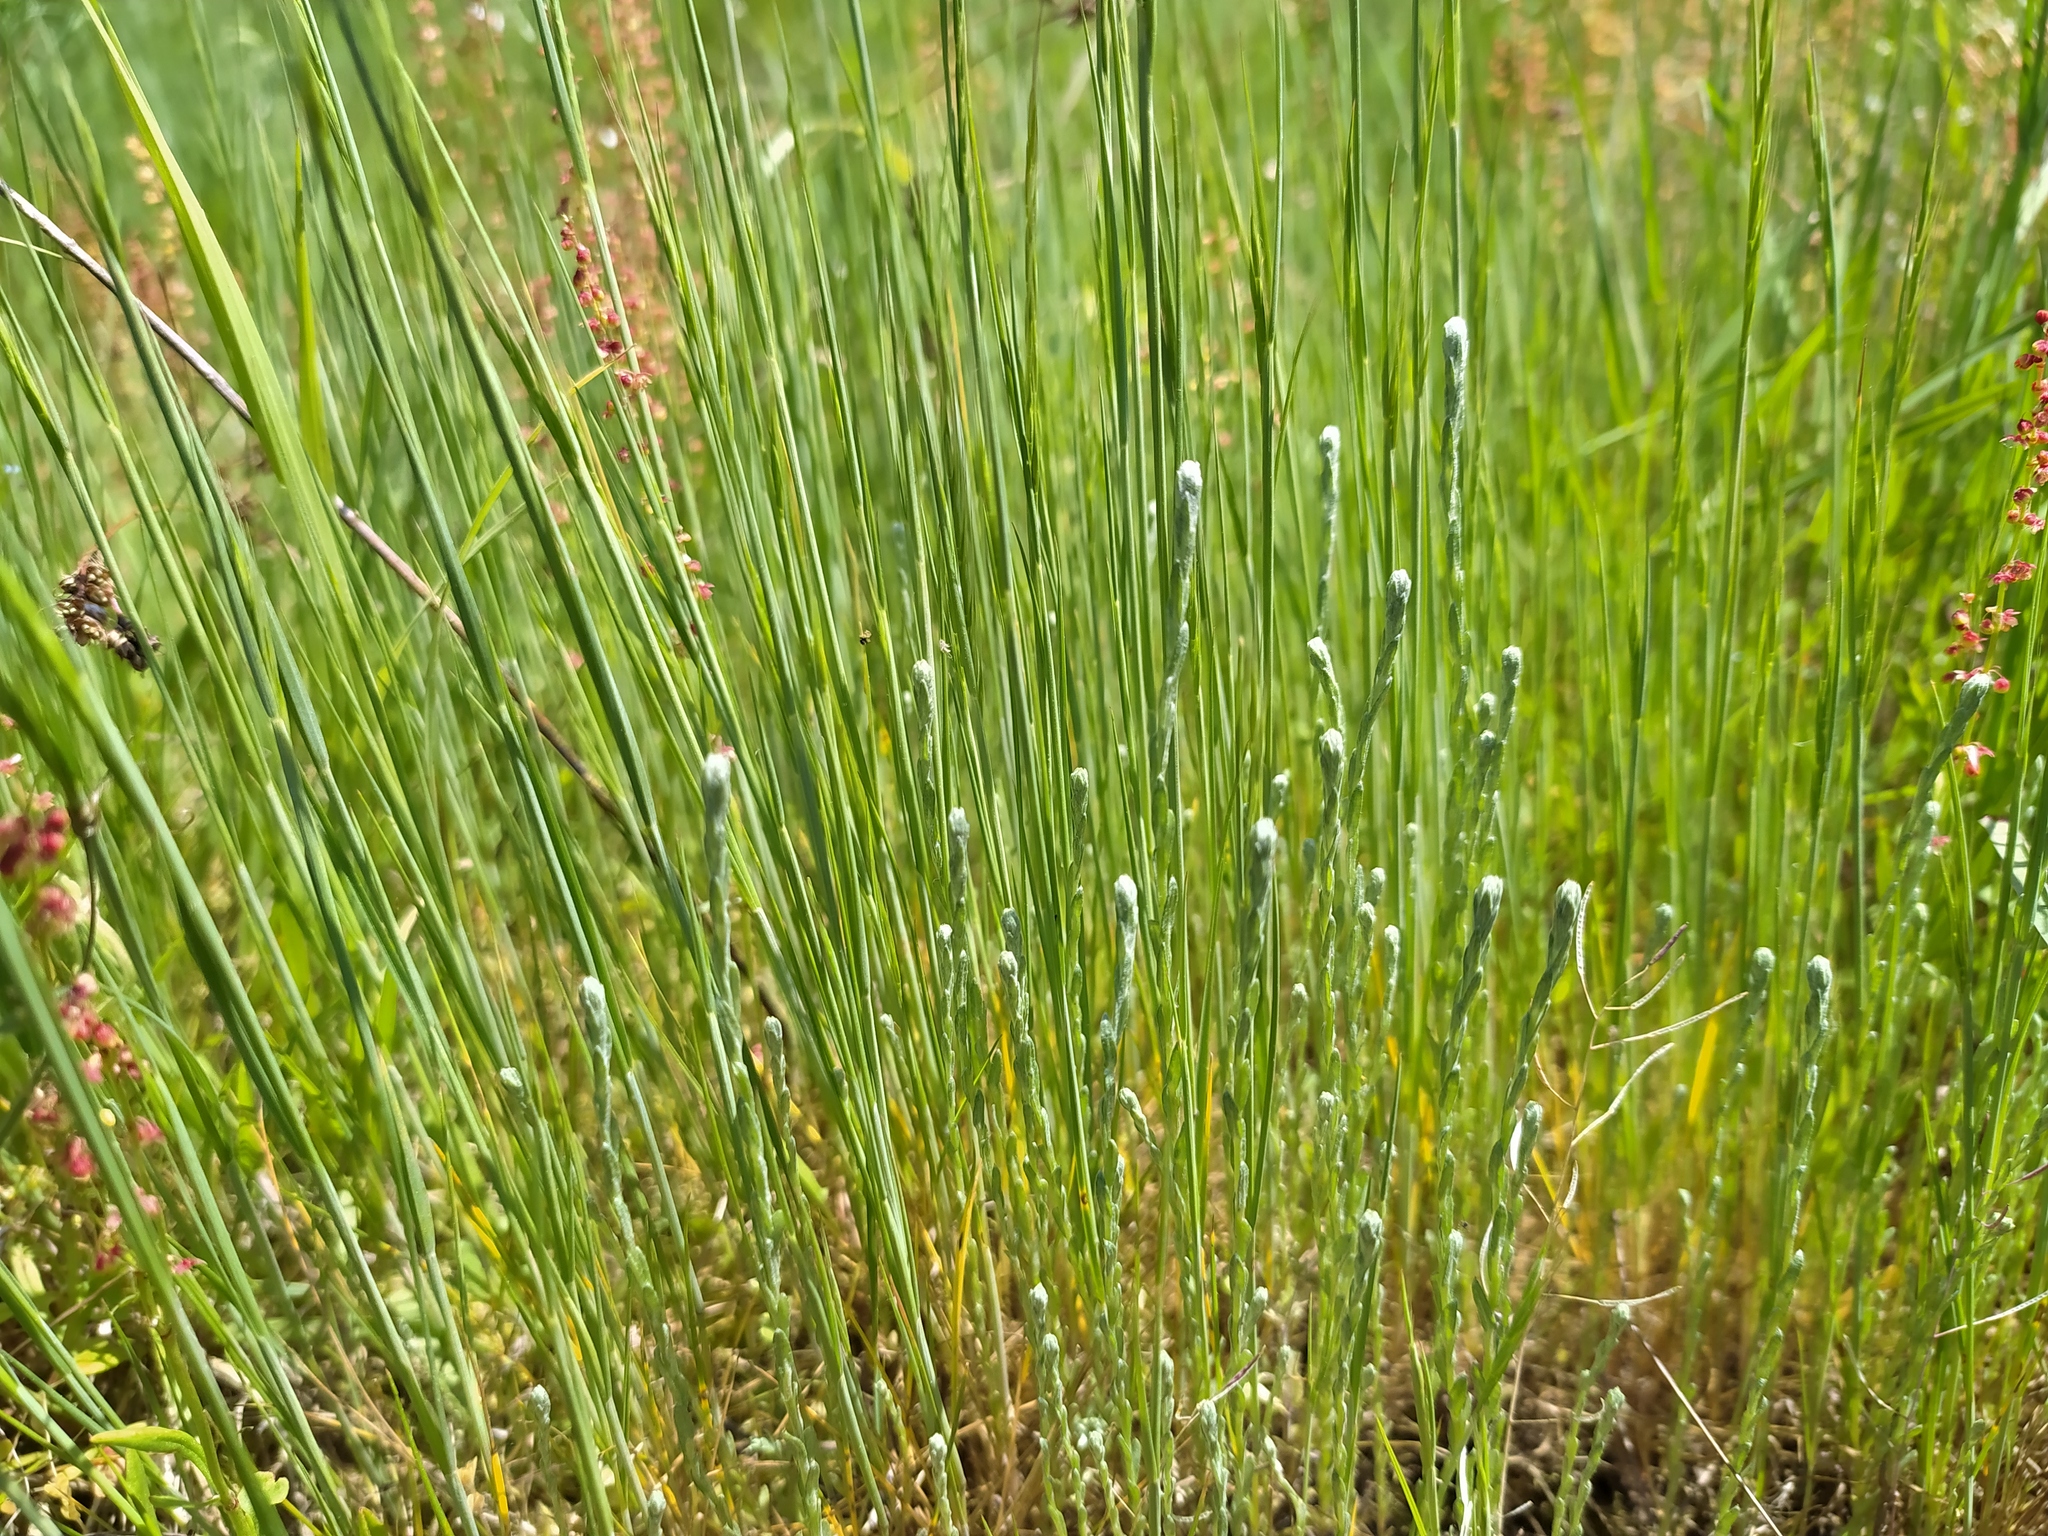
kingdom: Plantae
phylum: Tracheophyta
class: Magnoliopsida
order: Asterales
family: Asteraceae
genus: Logfia
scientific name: Logfia minima
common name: Little cottonrose
